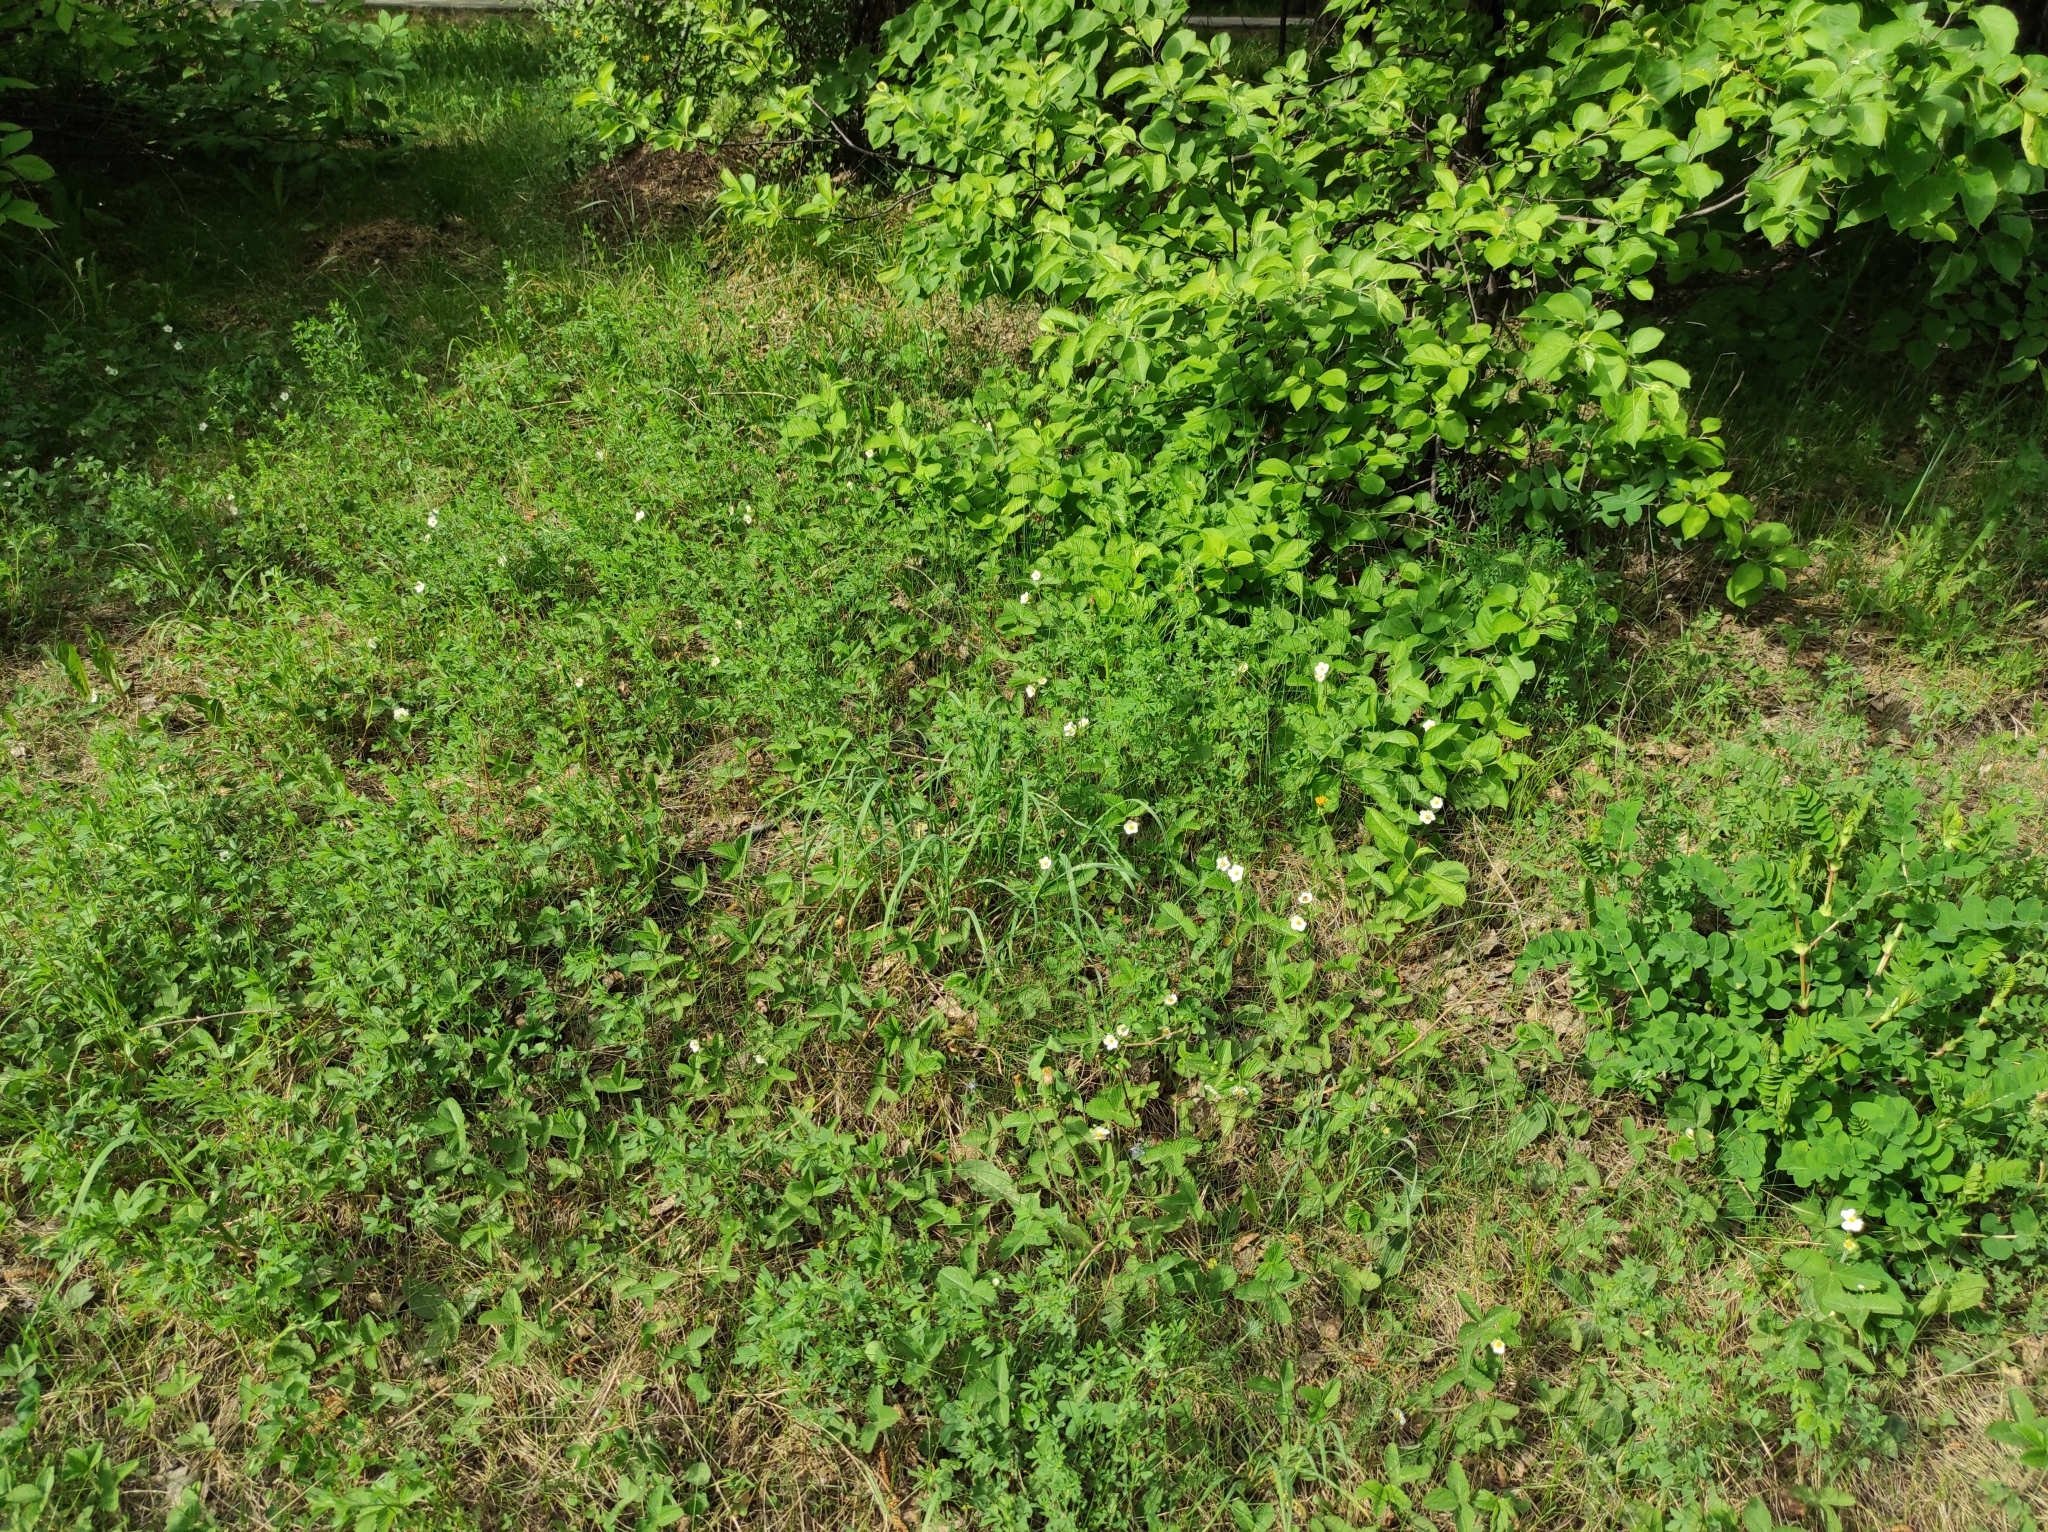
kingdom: Plantae
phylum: Tracheophyta
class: Magnoliopsida
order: Rosales
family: Rosaceae
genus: Fragaria
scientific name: Fragaria viridis
